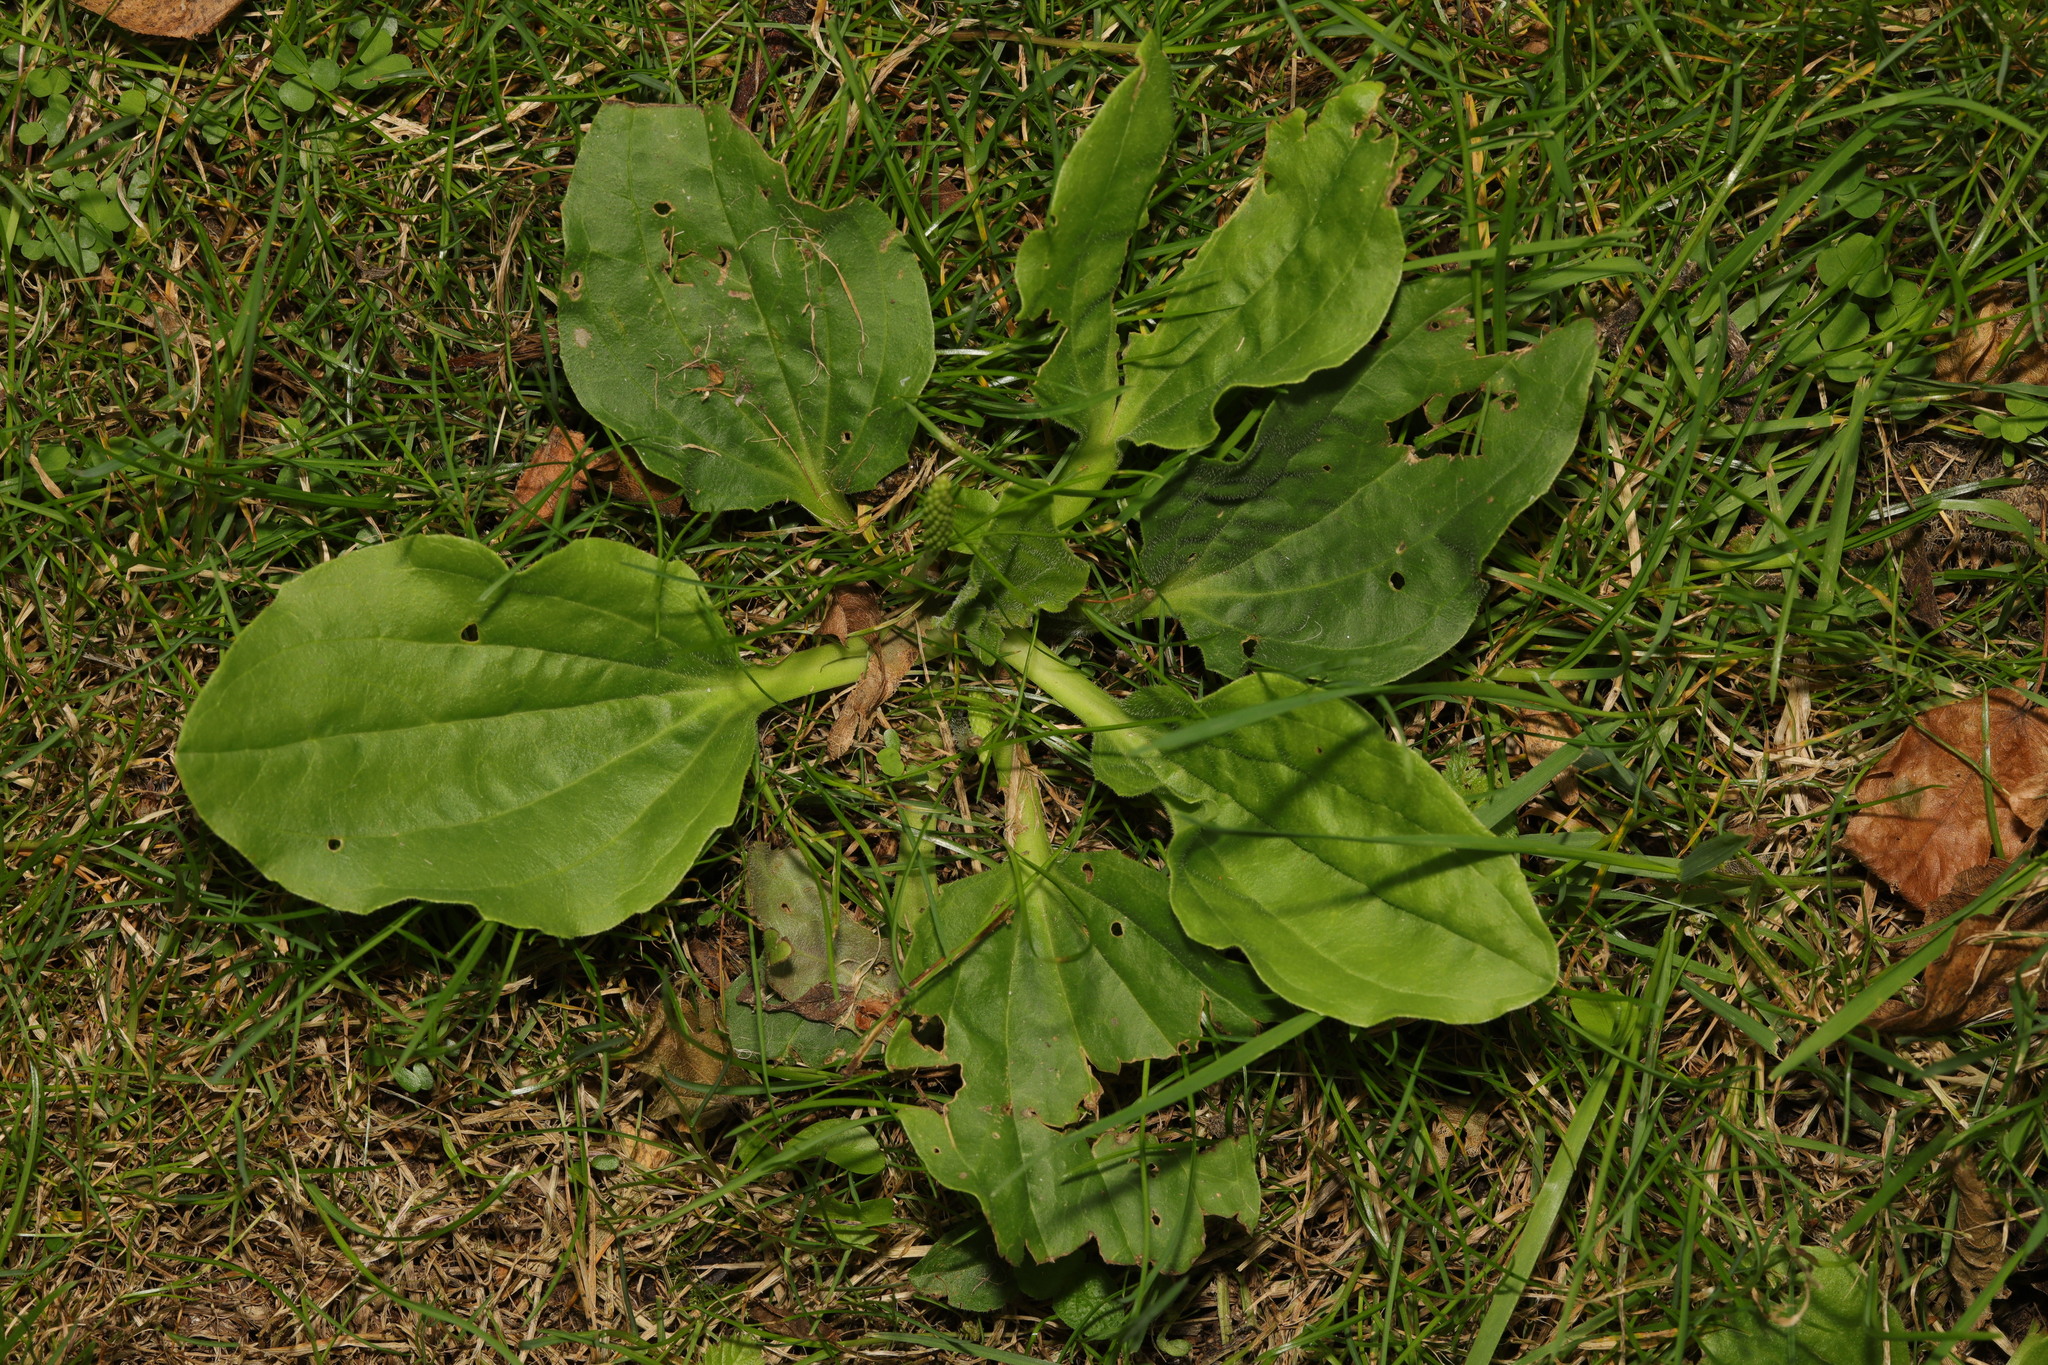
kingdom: Plantae
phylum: Tracheophyta
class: Magnoliopsida
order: Lamiales
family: Plantaginaceae
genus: Plantago
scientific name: Plantago major
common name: Common plantain
